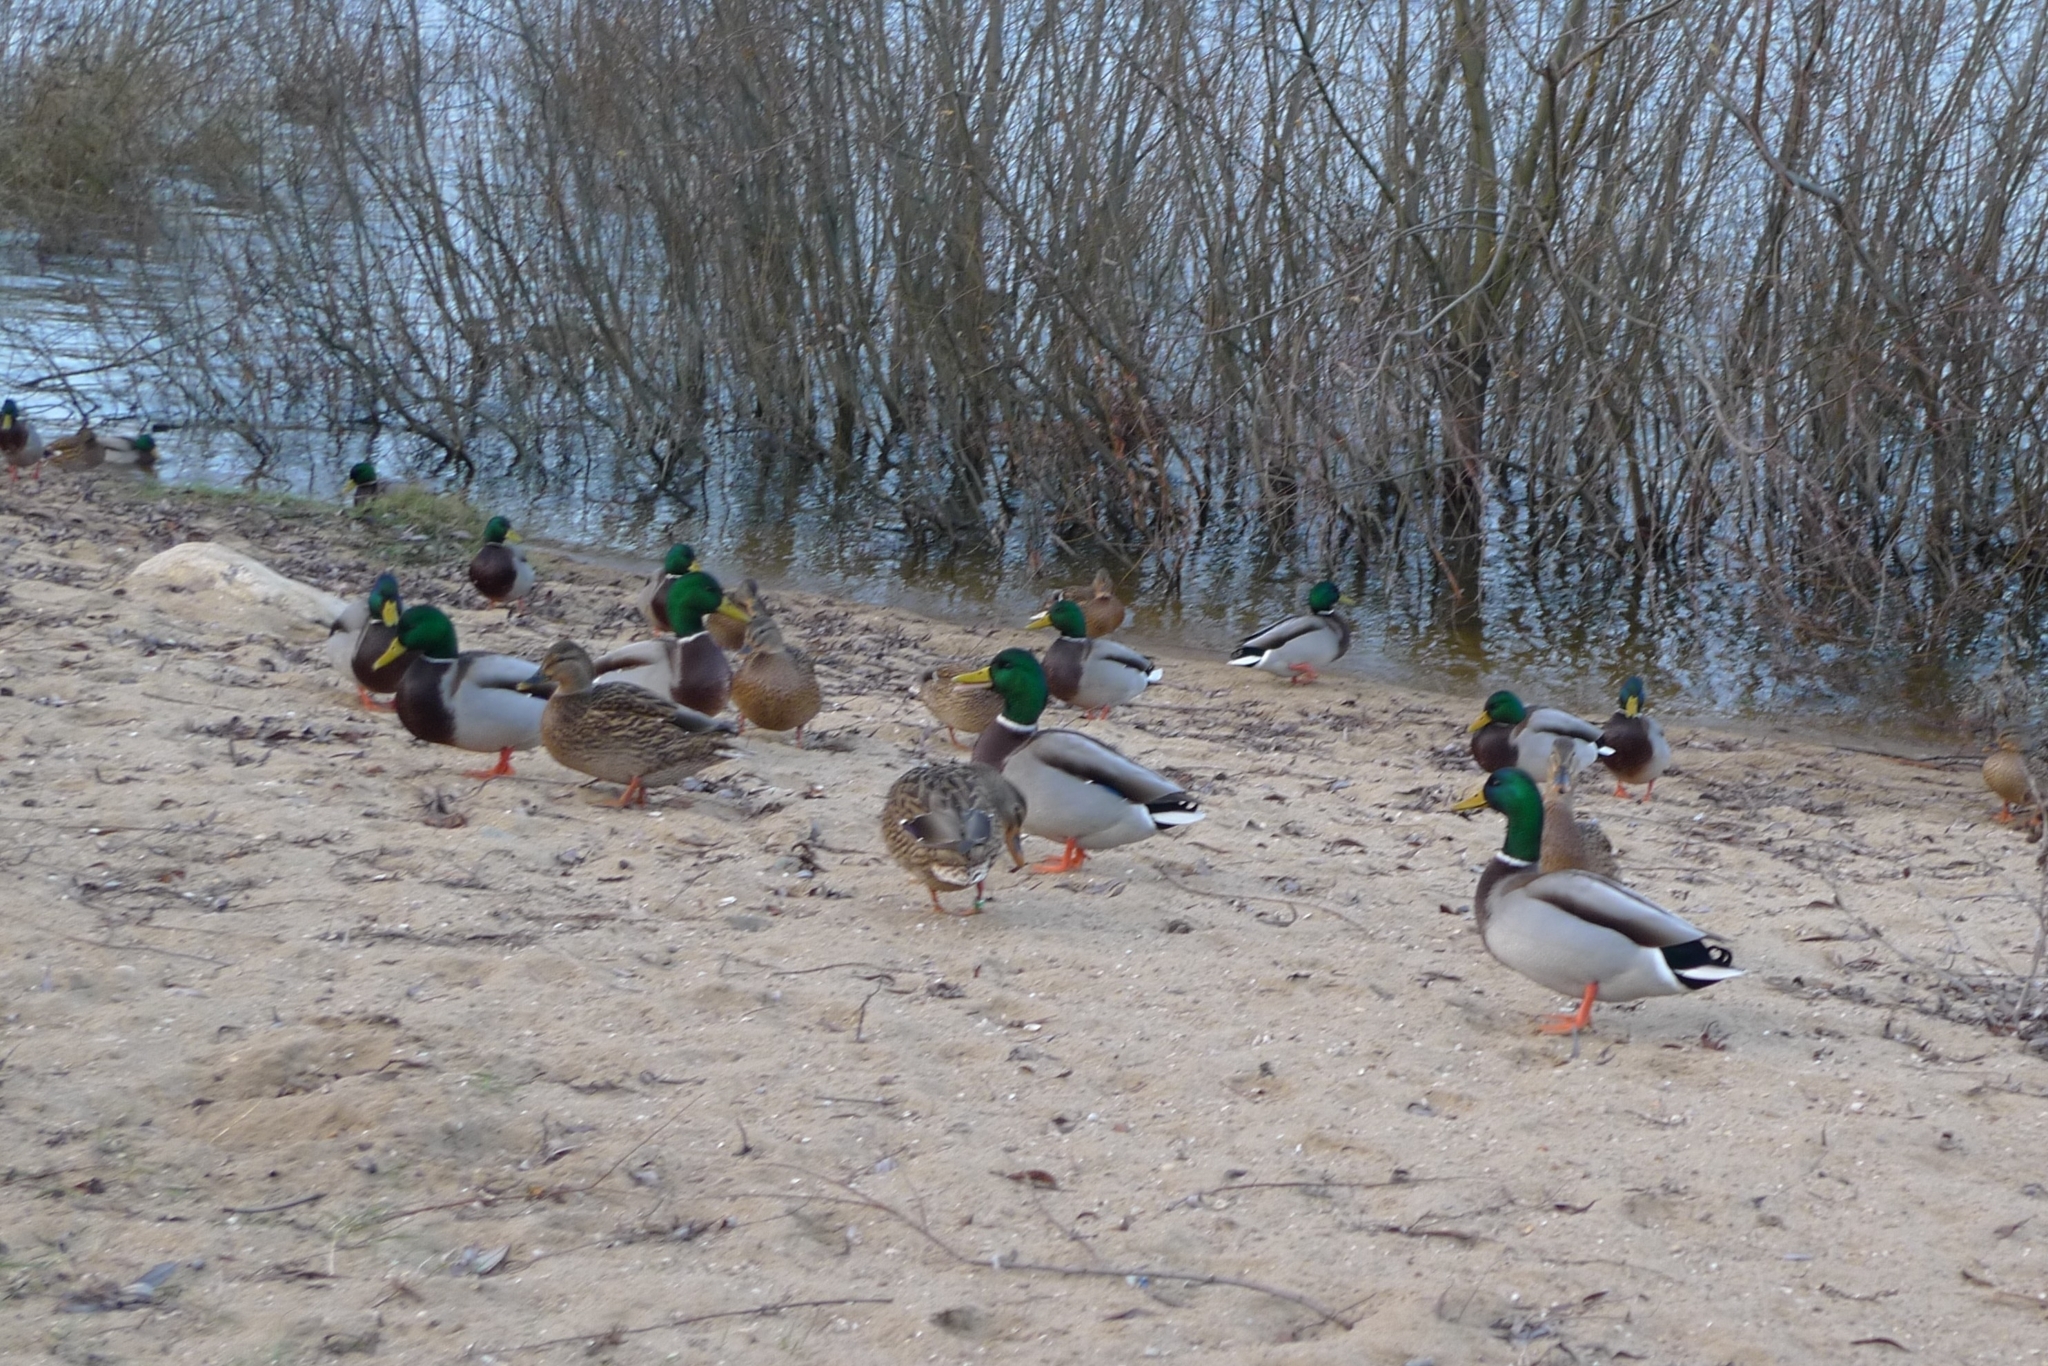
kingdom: Animalia
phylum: Chordata
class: Aves
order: Anseriformes
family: Anatidae
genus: Anas
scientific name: Anas platyrhynchos
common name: Mallard
